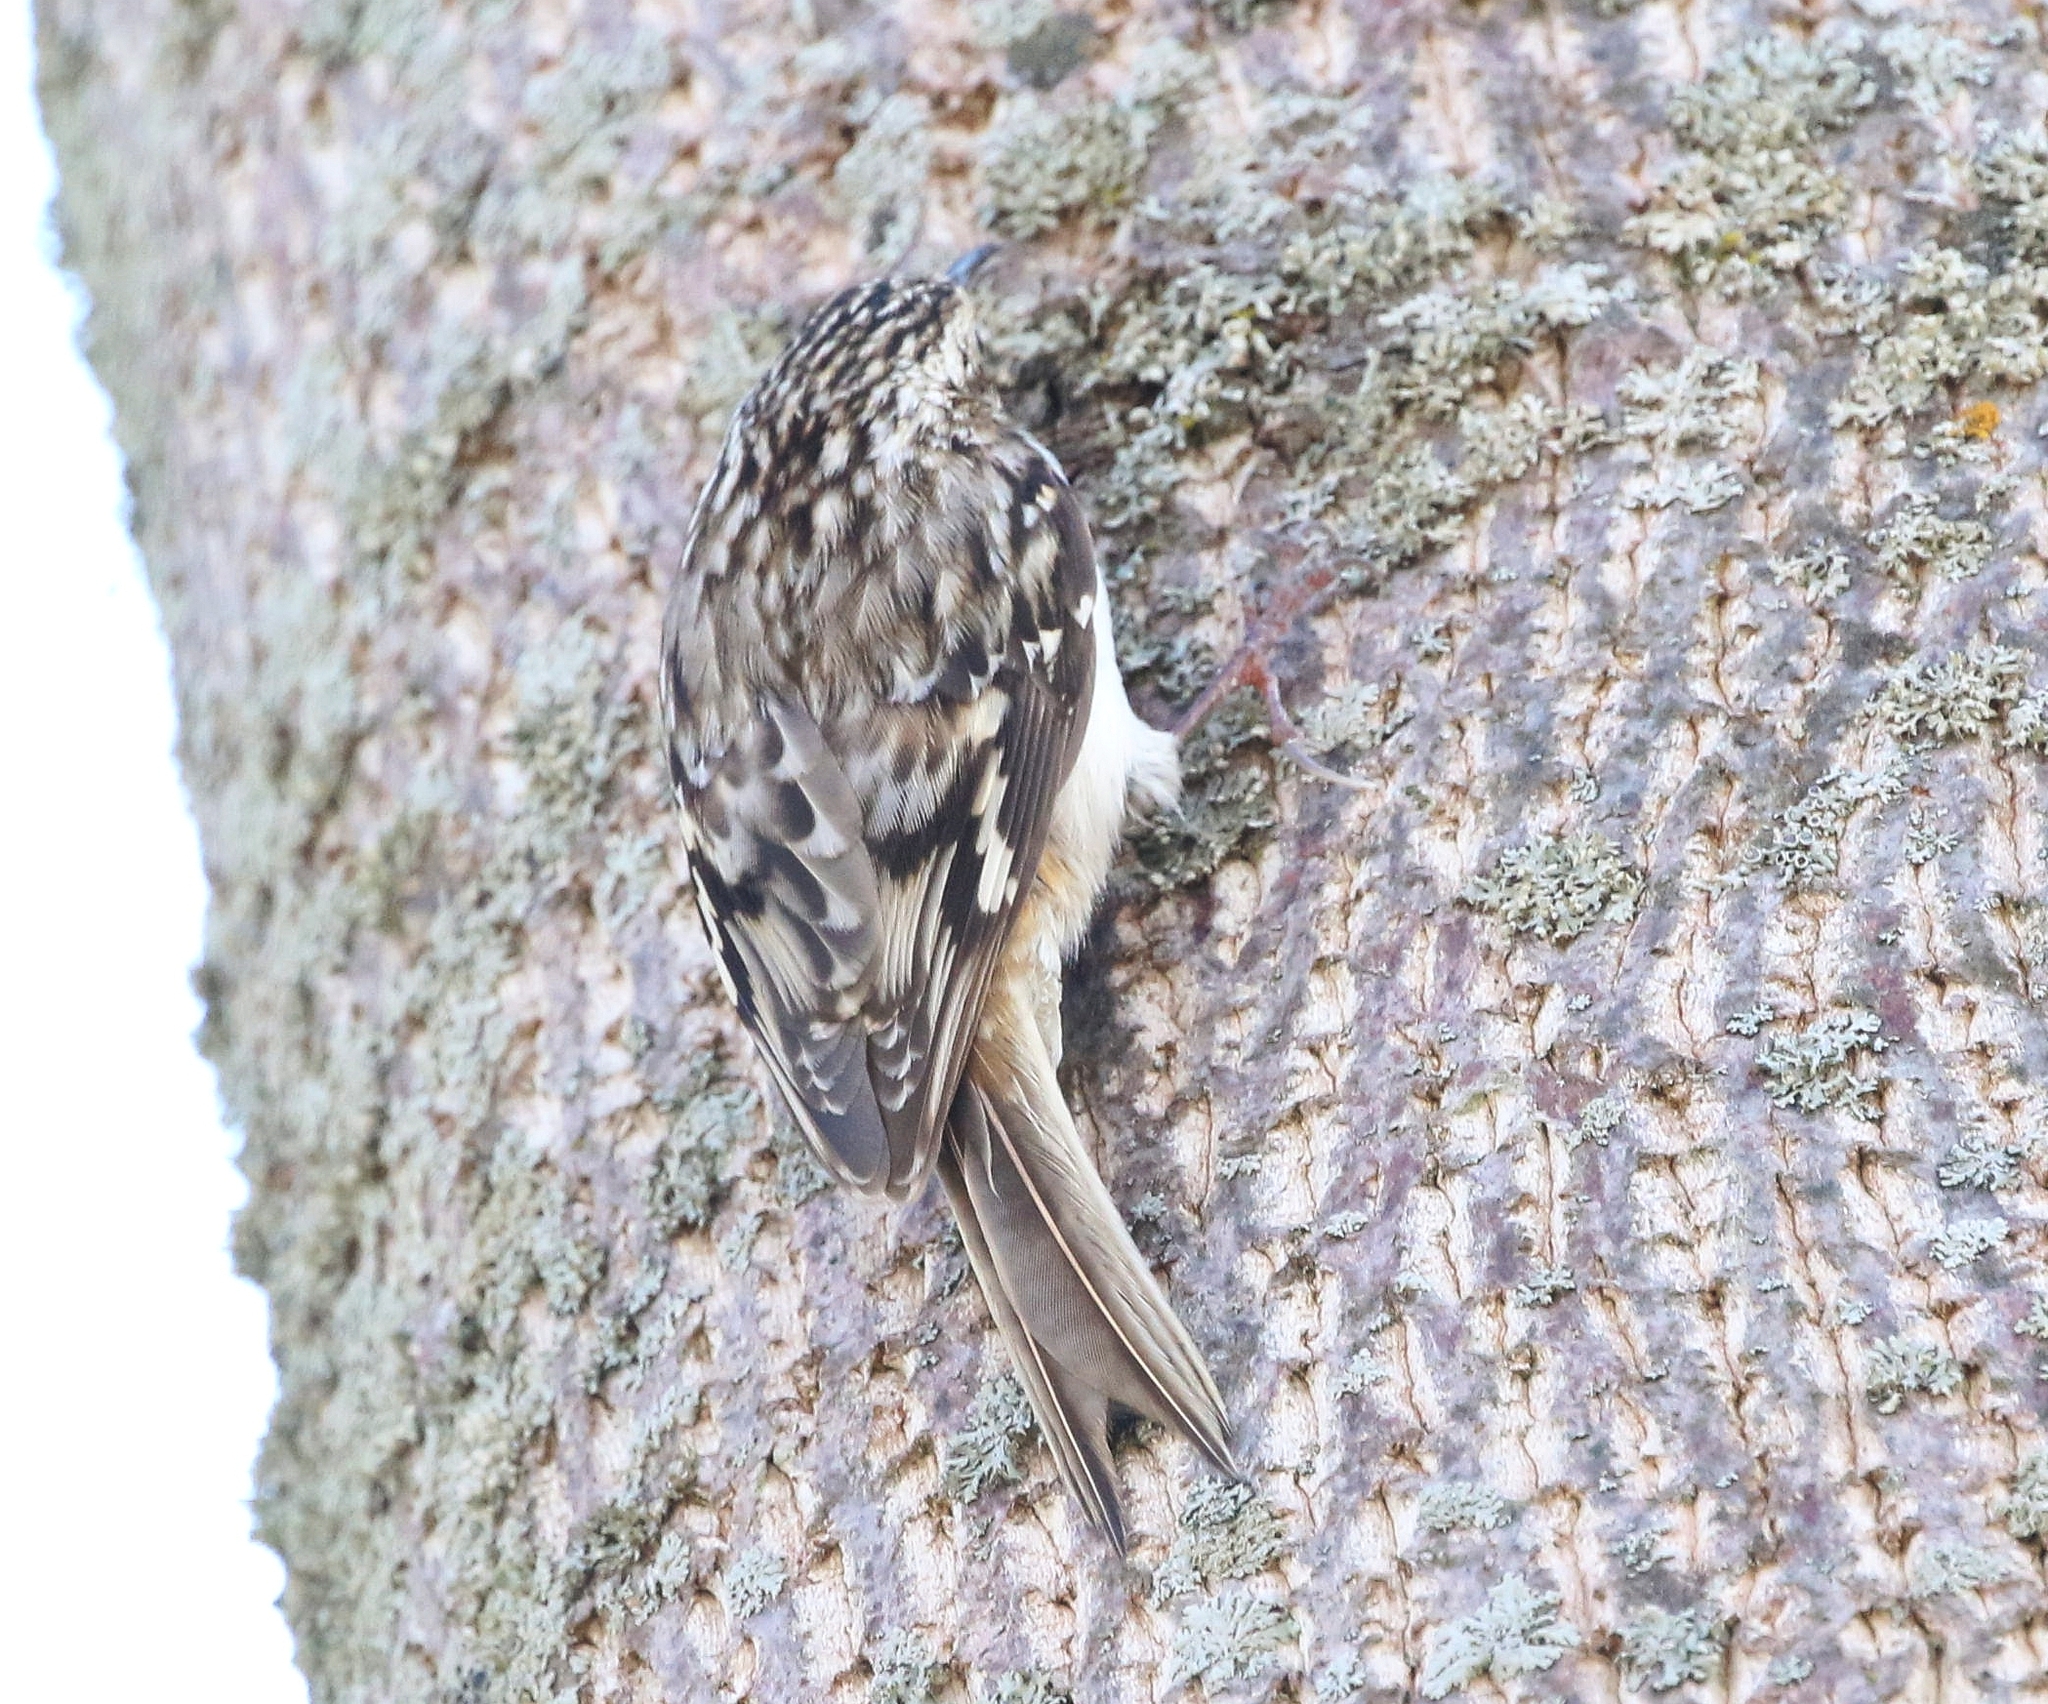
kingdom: Animalia
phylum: Chordata
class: Aves
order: Passeriformes
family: Certhiidae
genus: Certhia
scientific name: Certhia americana
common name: Brown creeper
